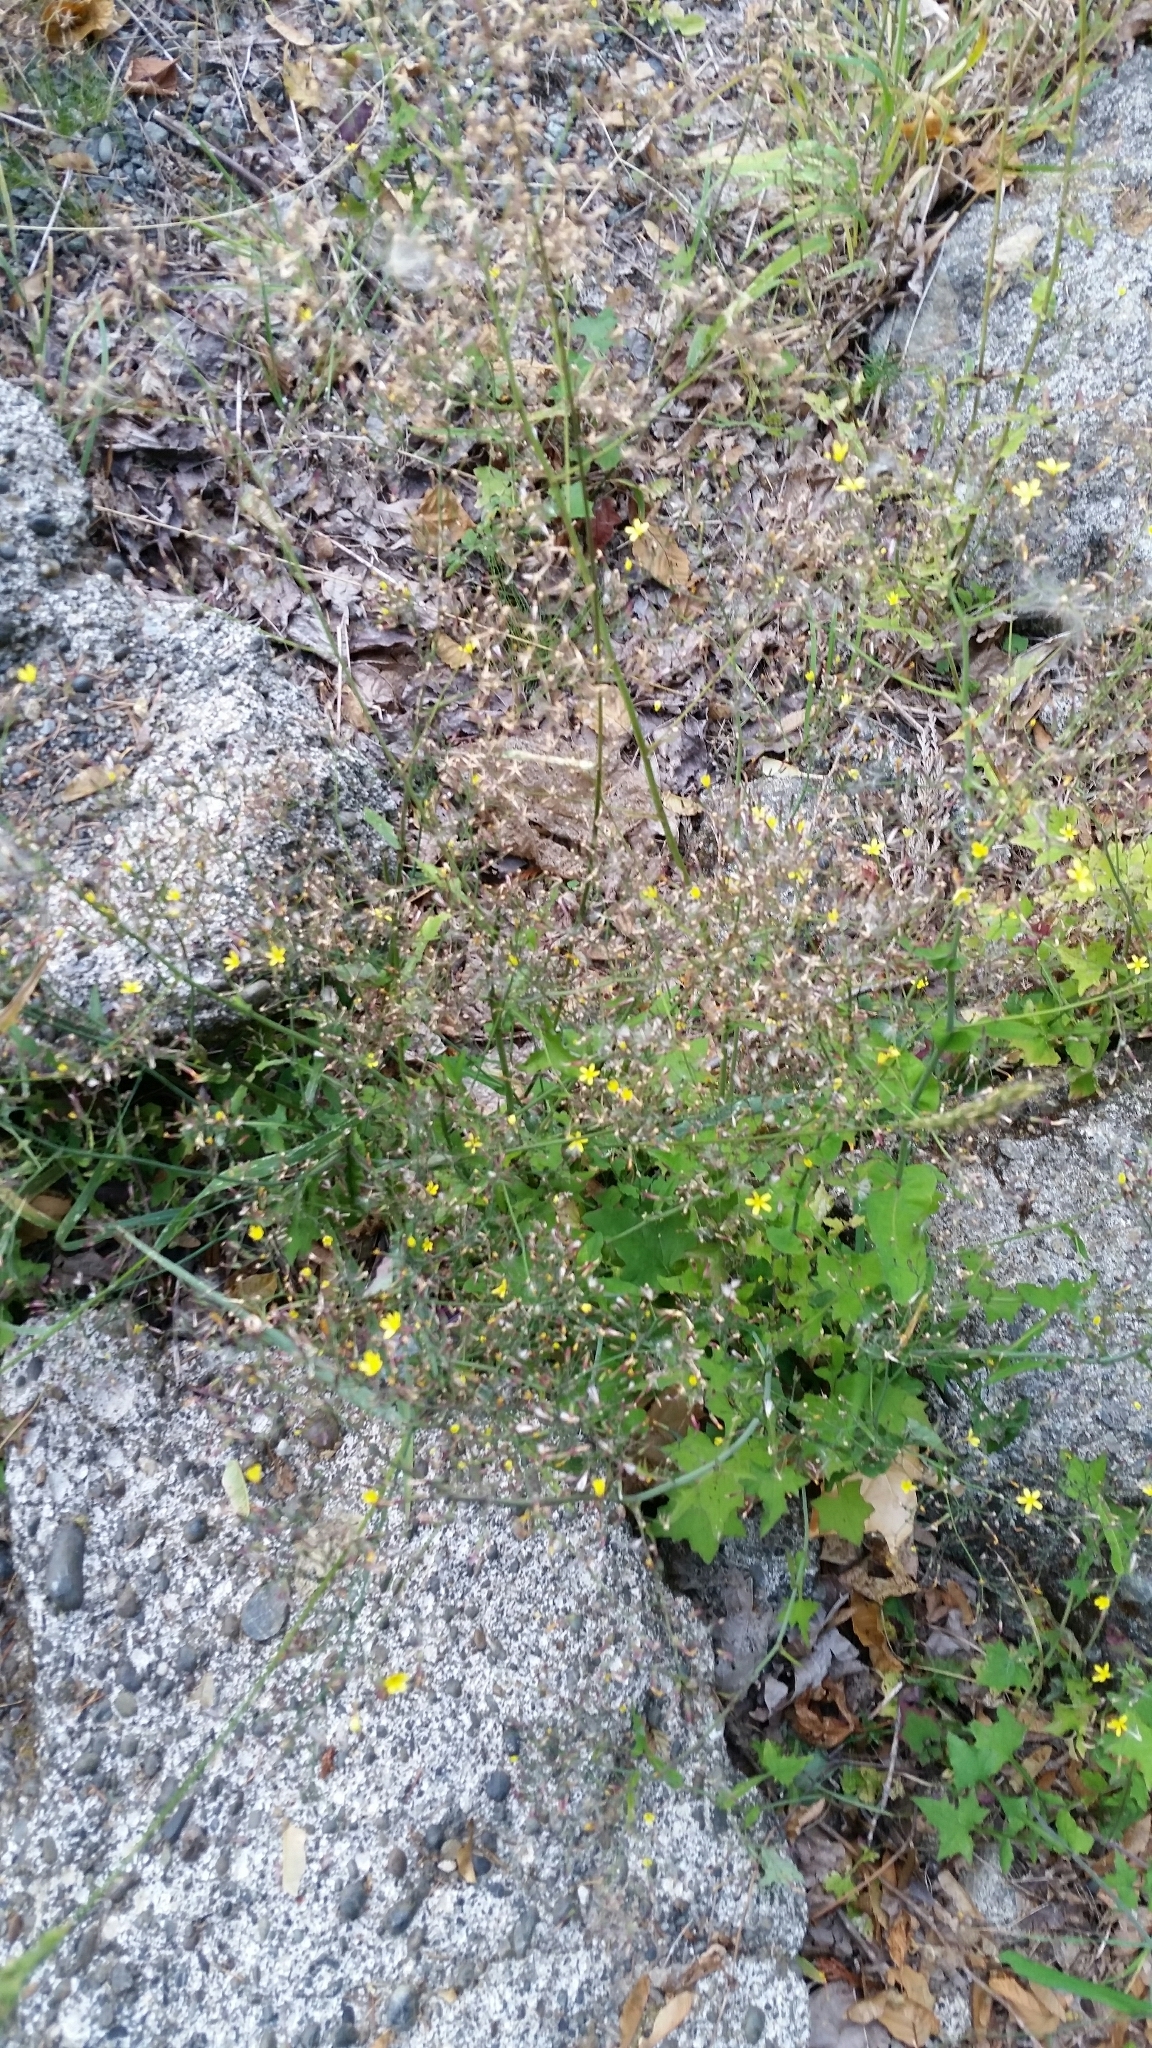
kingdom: Plantae
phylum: Tracheophyta
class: Magnoliopsida
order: Asterales
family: Asteraceae
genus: Mycelis
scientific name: Mycelis muralis
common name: Wall lettuce
